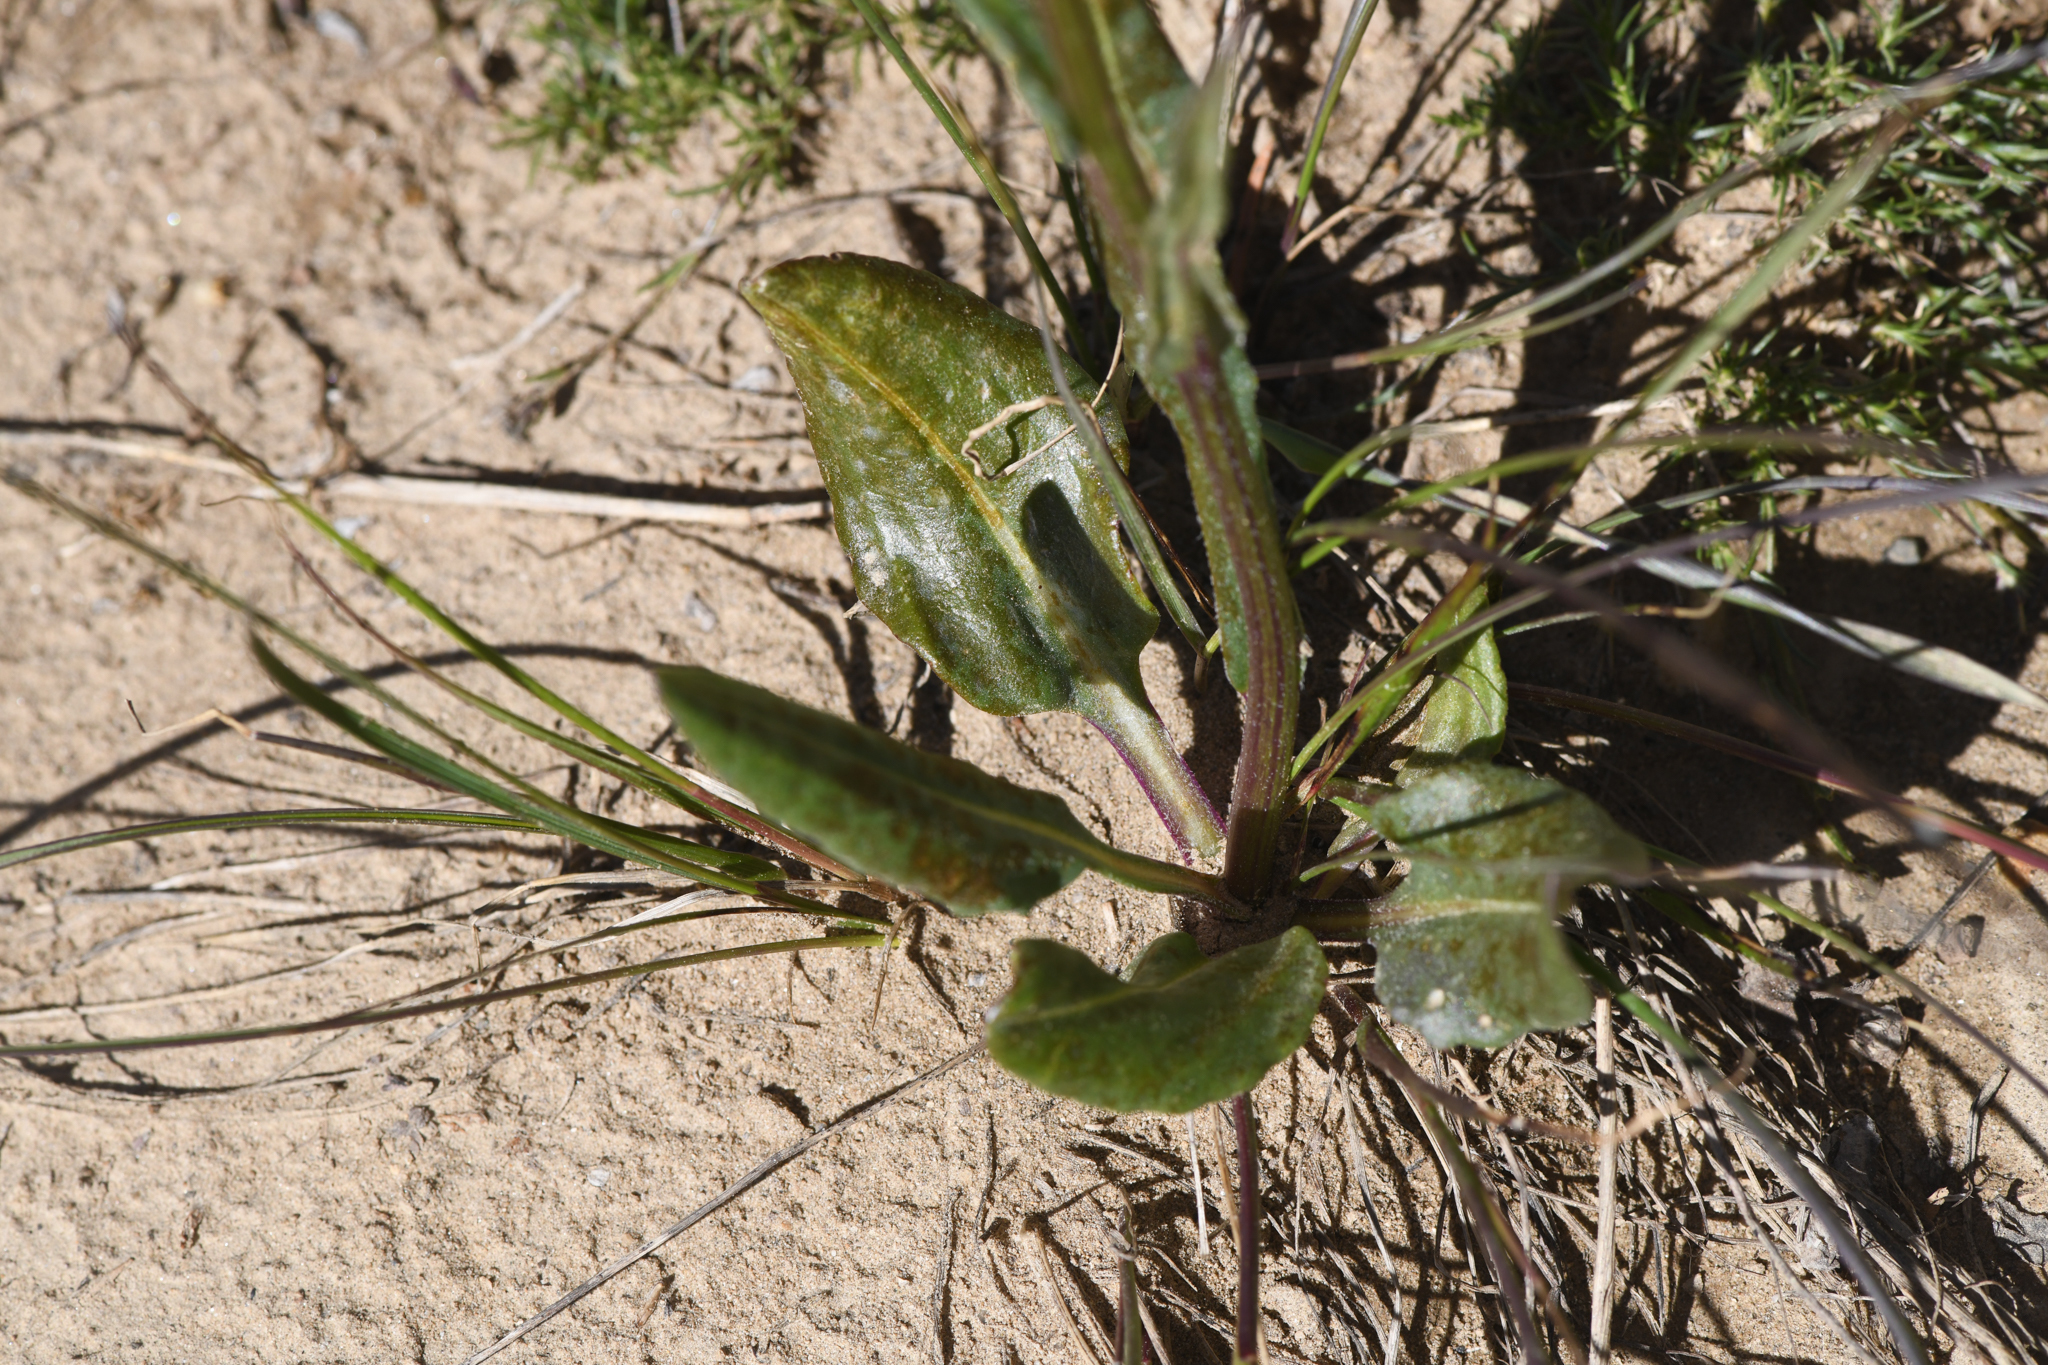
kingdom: Plantae
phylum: Tracheophyta
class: Magnoliopsida
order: Asterales
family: Asteraceae
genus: Senecio
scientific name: Senecio integerrimus
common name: Gaugeplant
